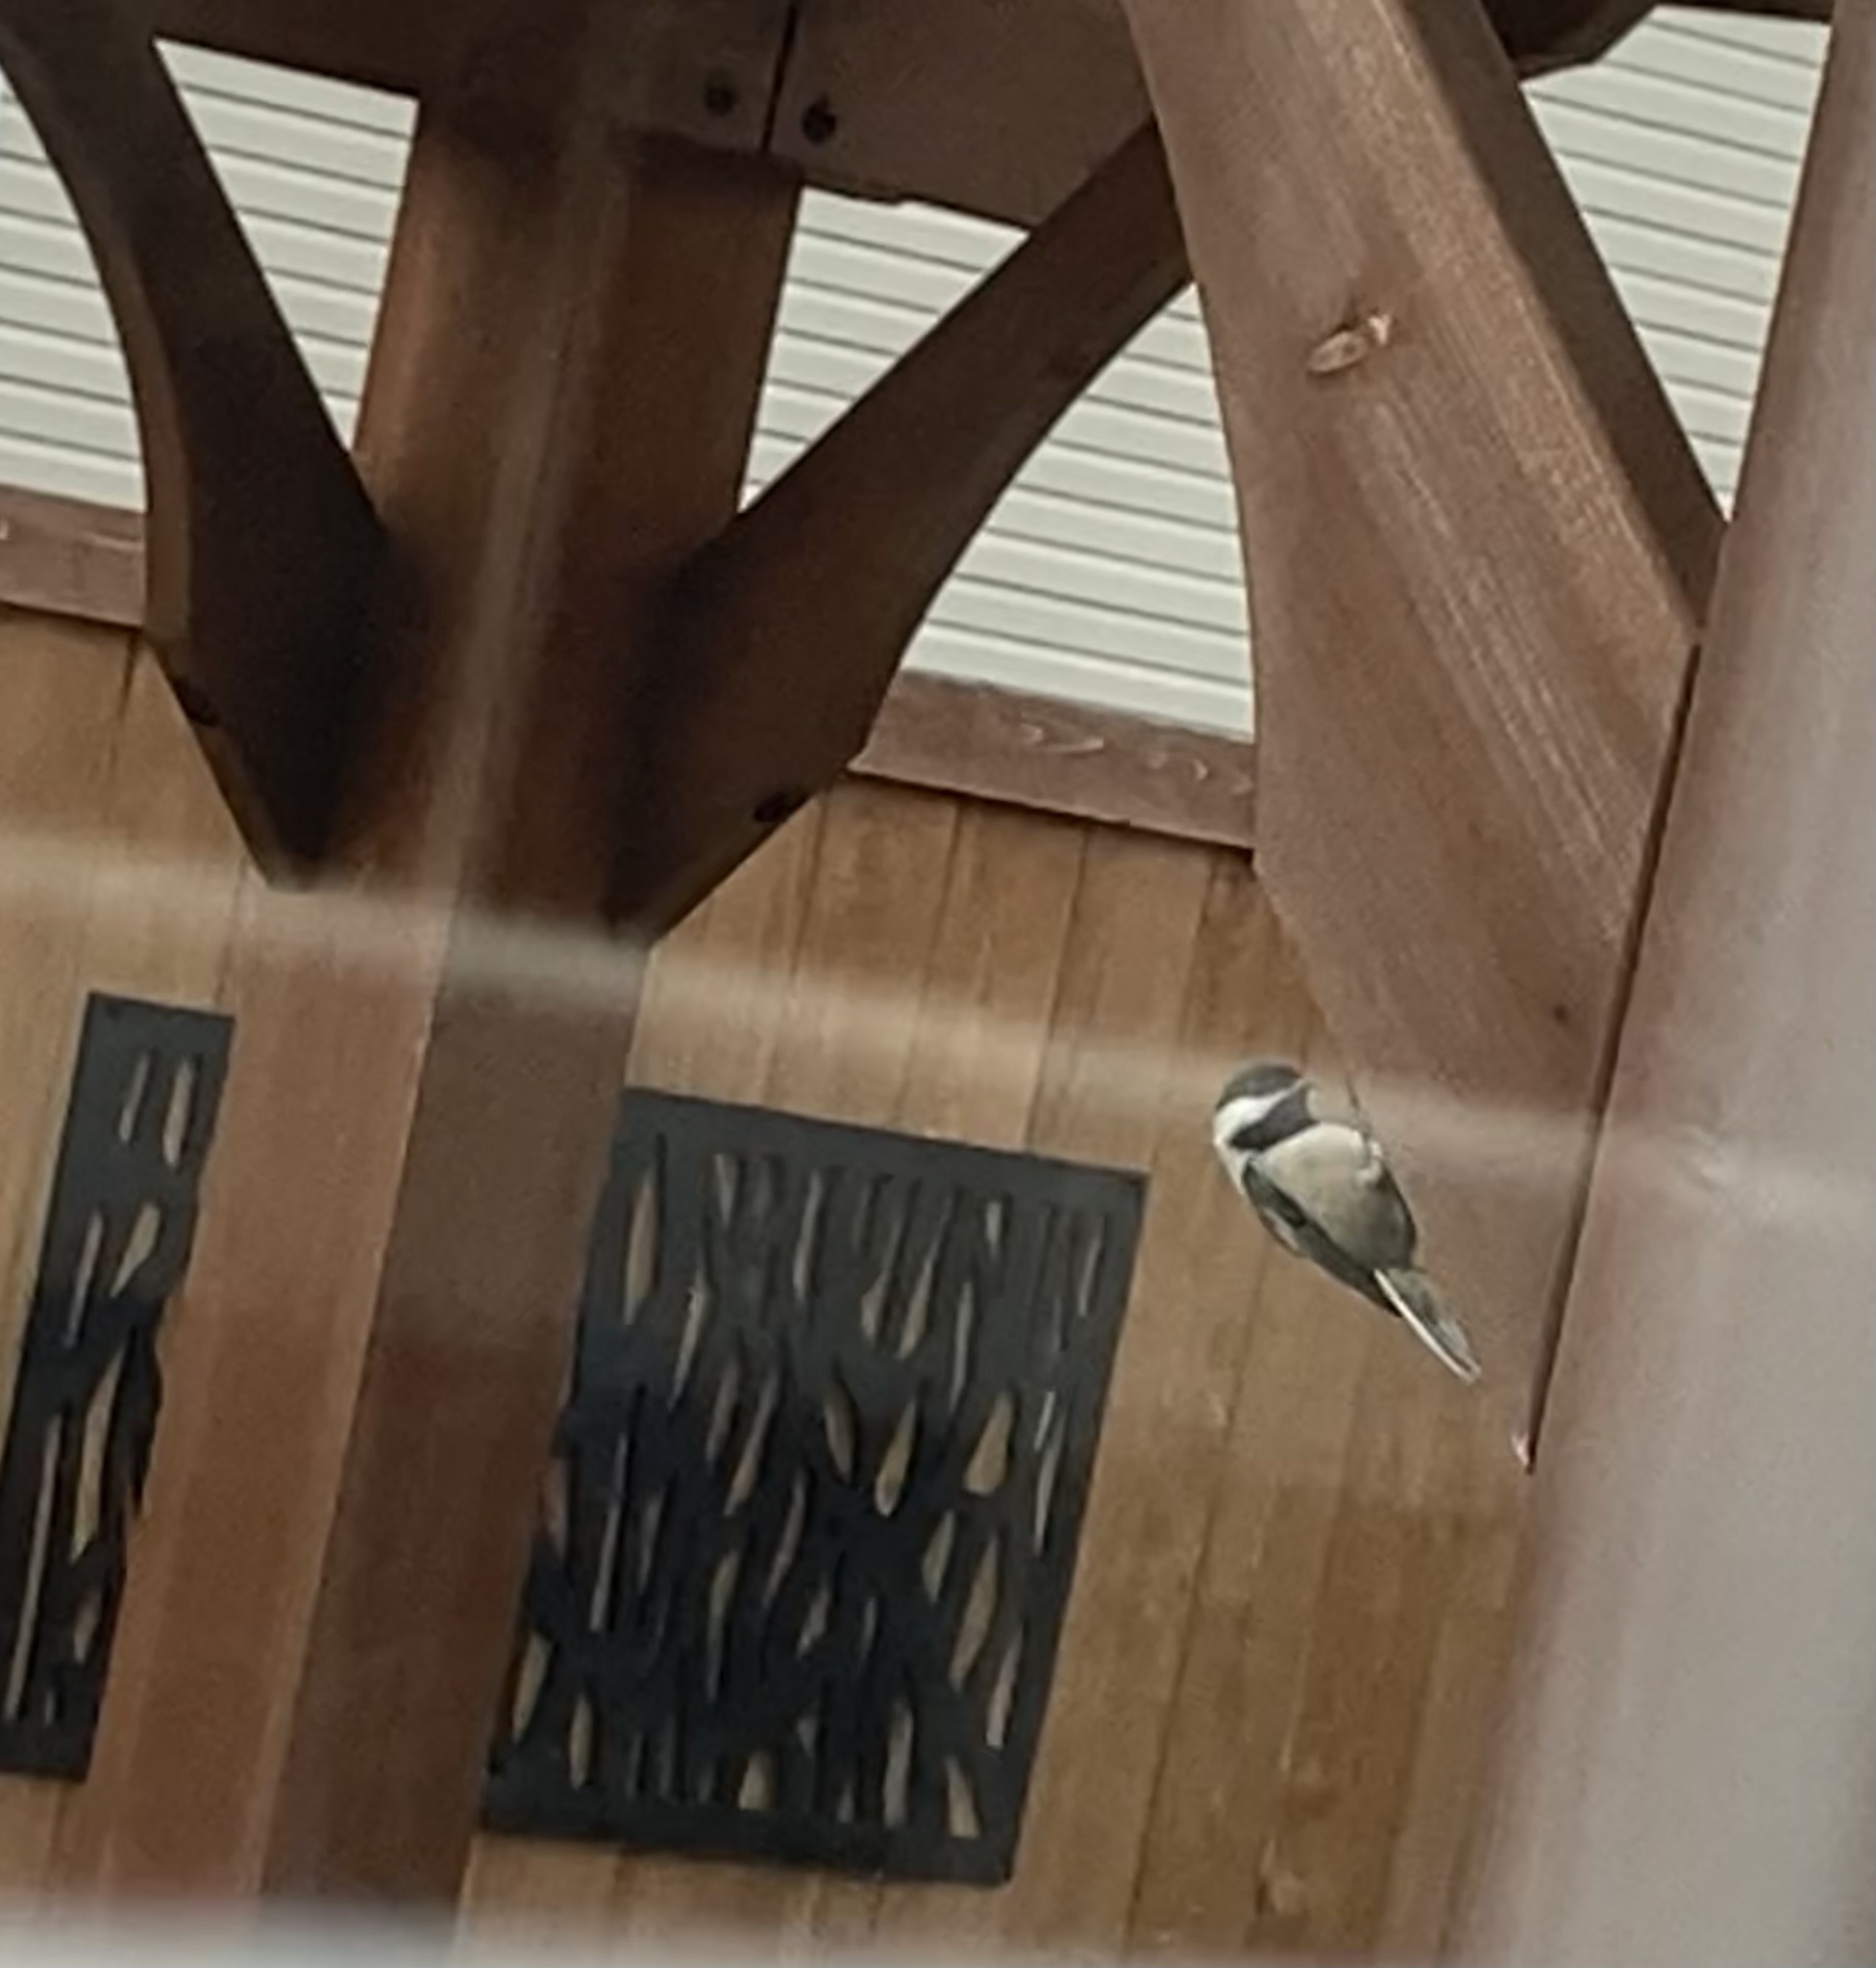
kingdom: Animalia
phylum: Chordata
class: Aves
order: Passeriformes
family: Paridae
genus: Poecile
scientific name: Poecile atricapillus
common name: Black-capped chickadee
